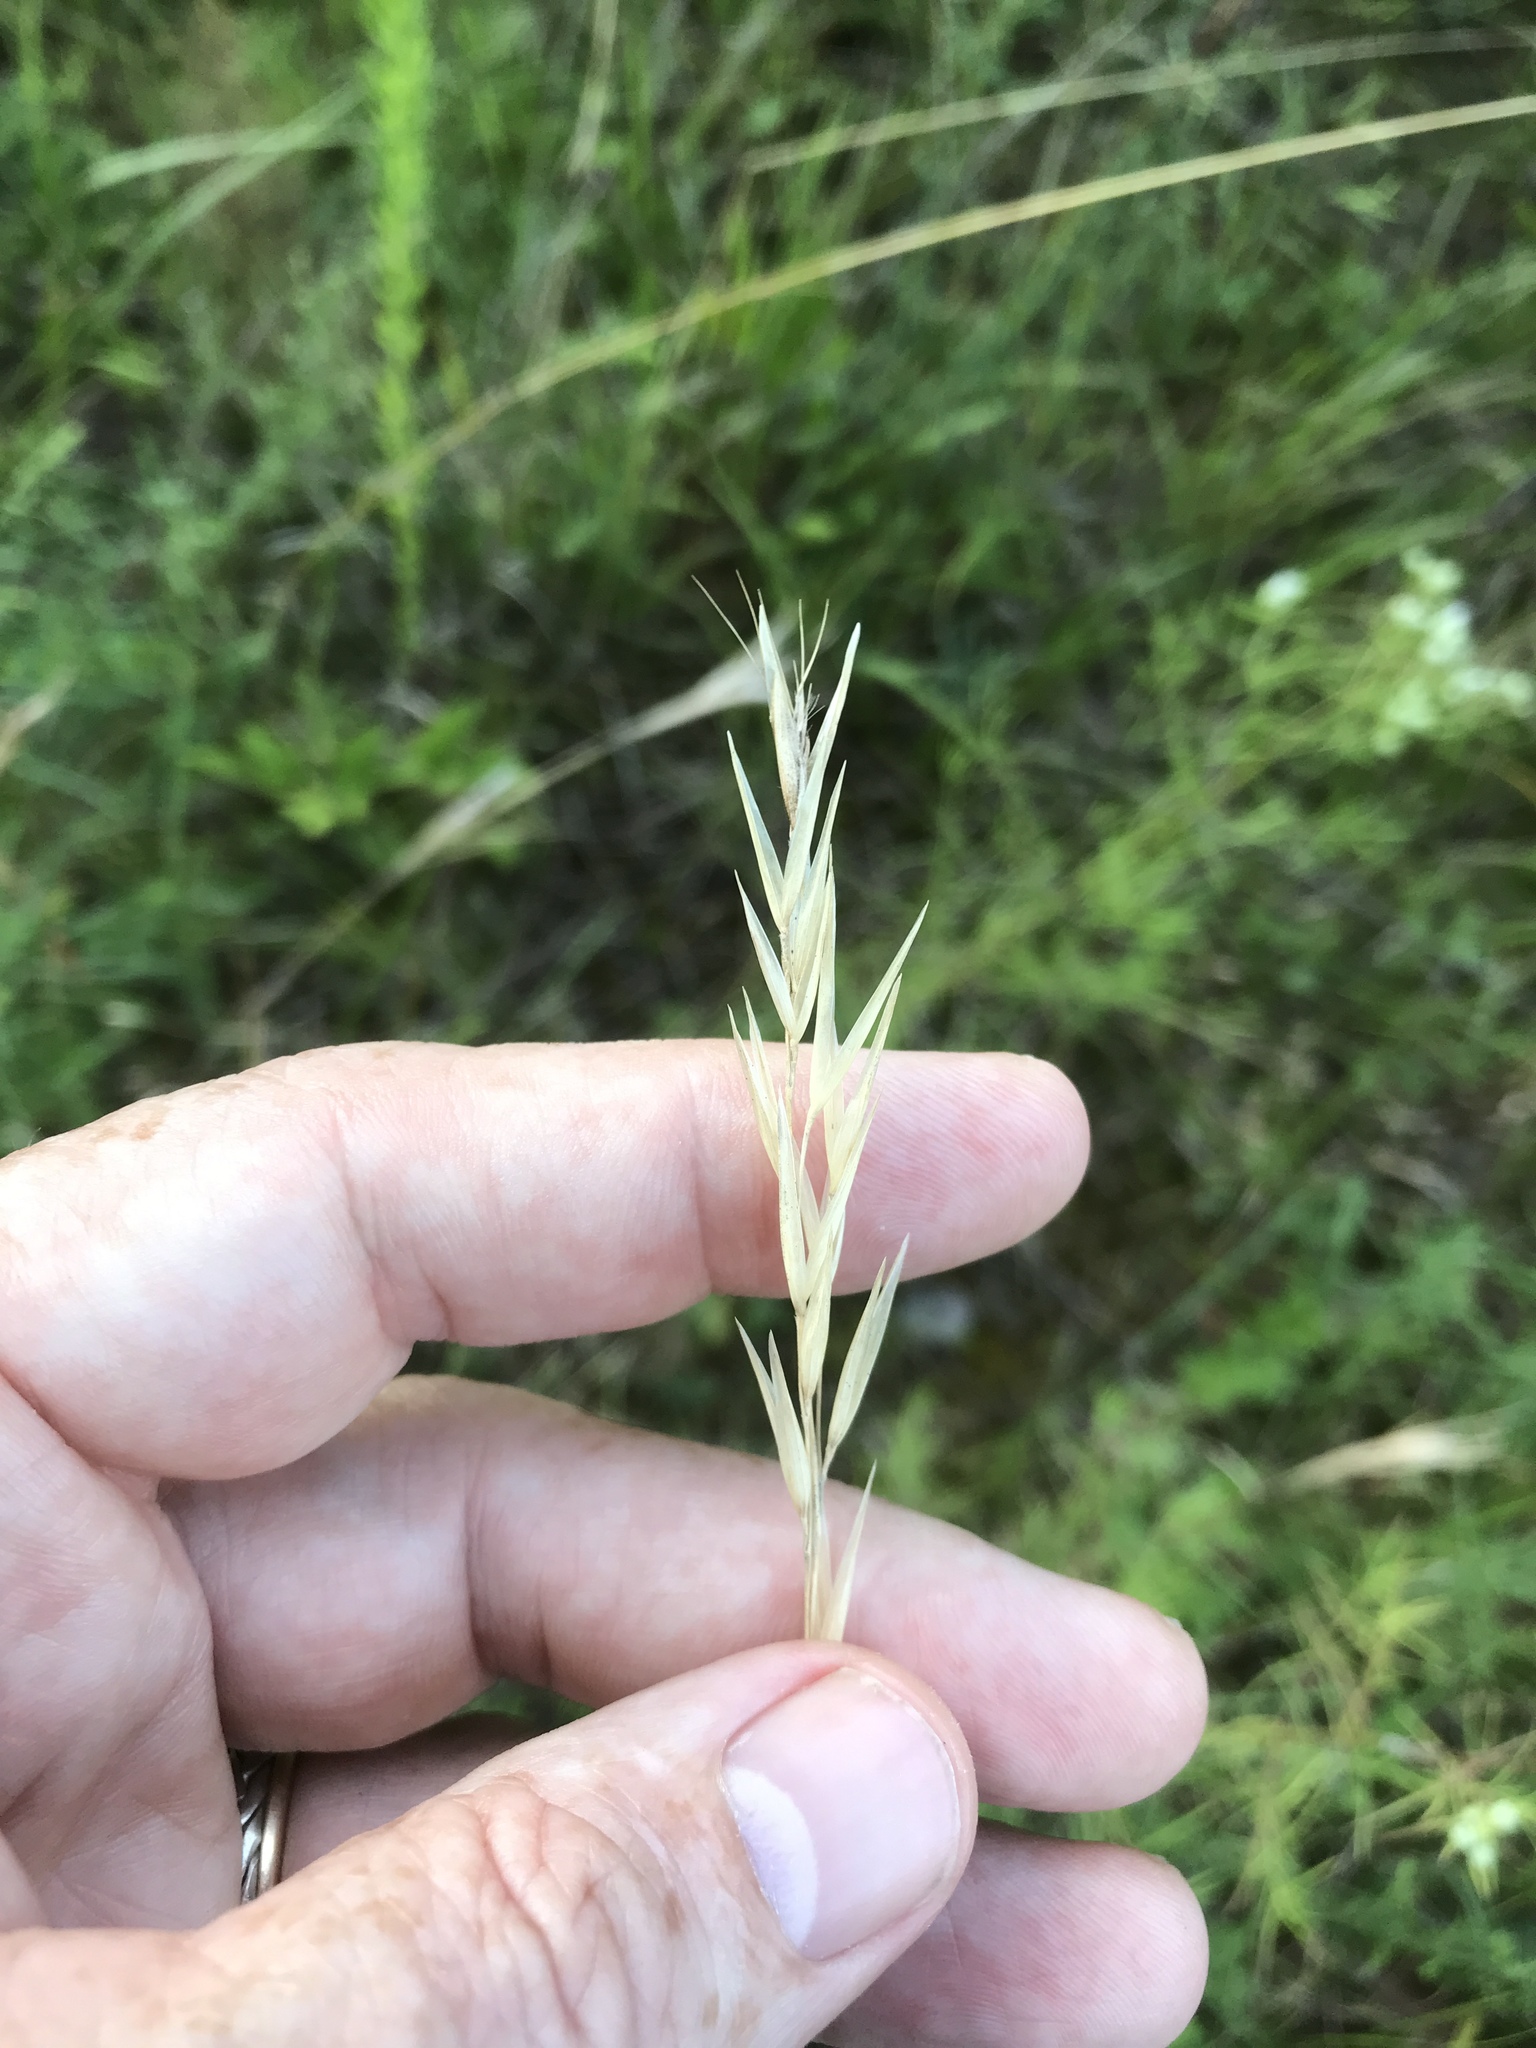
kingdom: Plantae
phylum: Tracheophyta
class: Liliopsida
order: Poales
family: Poaceae
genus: Danthonia
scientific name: Danthonia sericea
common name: Downy danthonia
